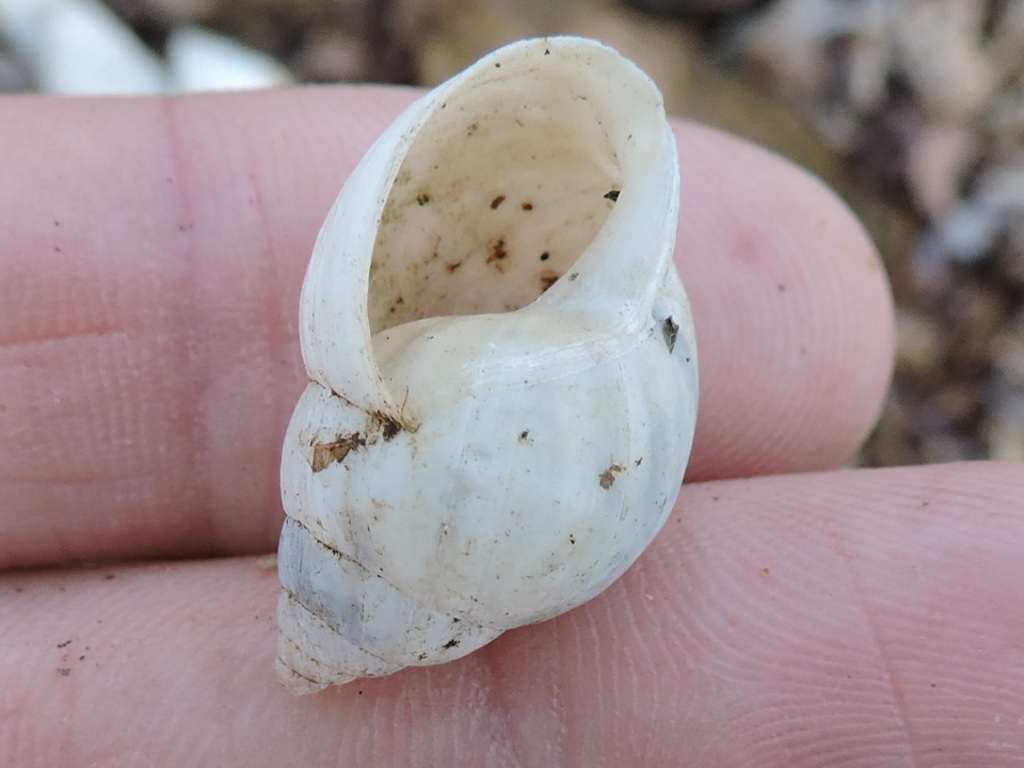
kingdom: Animalia
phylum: Mollusca
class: Gastropoda
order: Stylommatophora
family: Bulimulidae
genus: Rabdotus
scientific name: Rabdotus dealbatus
